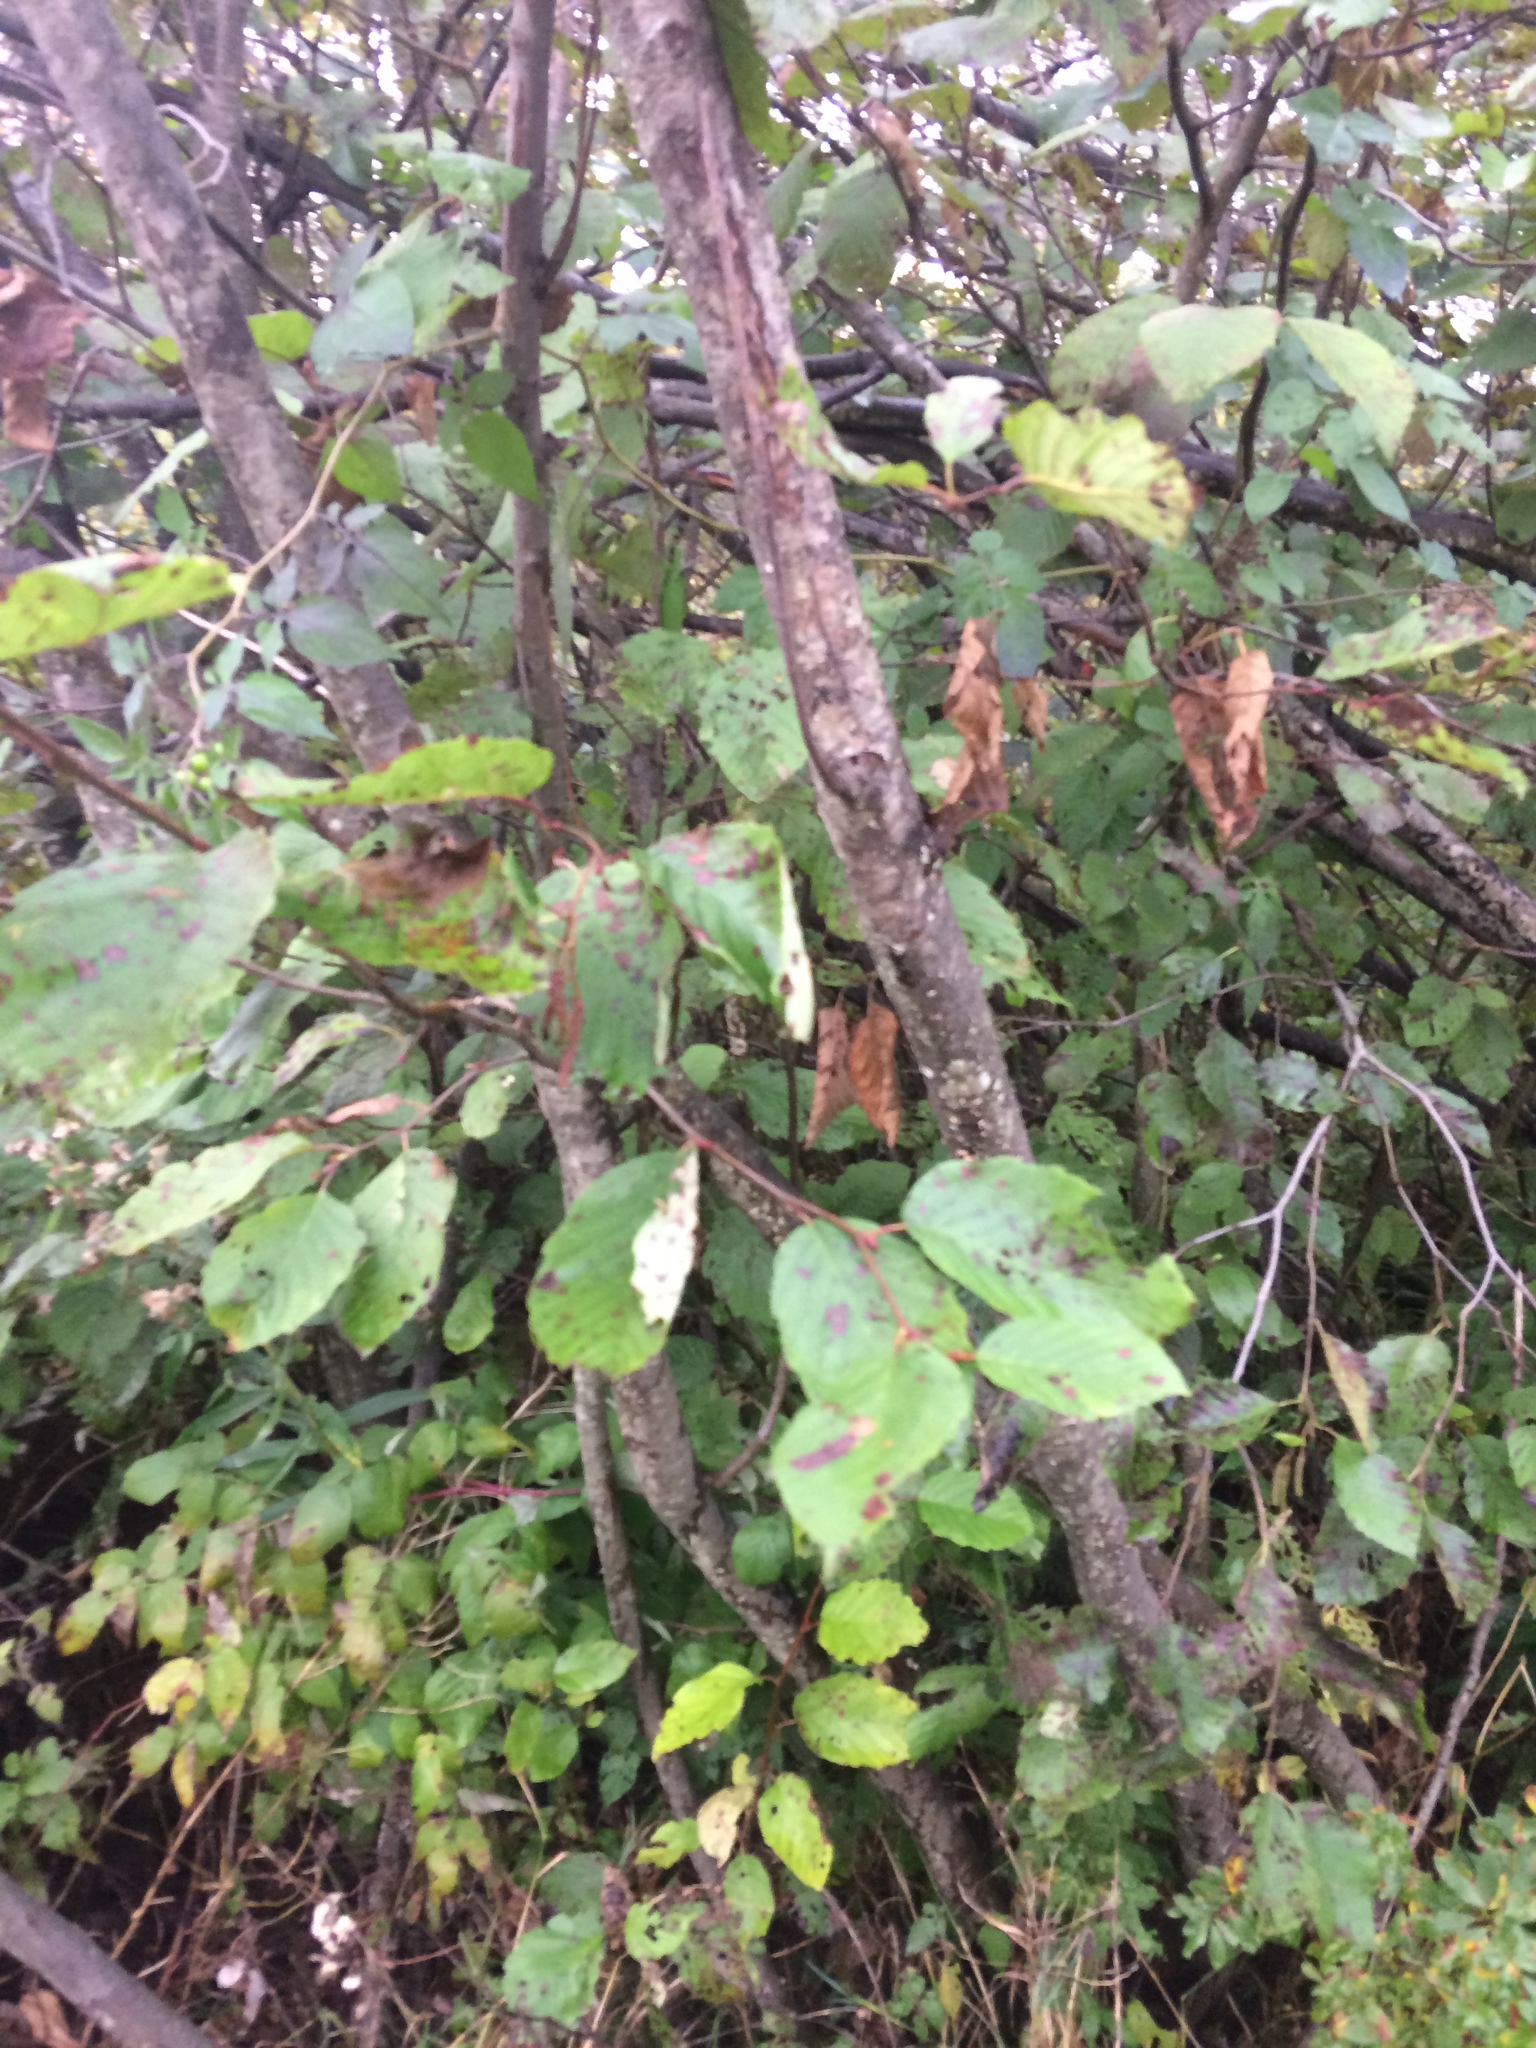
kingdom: Plantae
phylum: Tracheophyta
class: Magnoliopsida
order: Fagales
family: Betulaceae
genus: Alnus
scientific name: Alnus incana
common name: Grey alder
